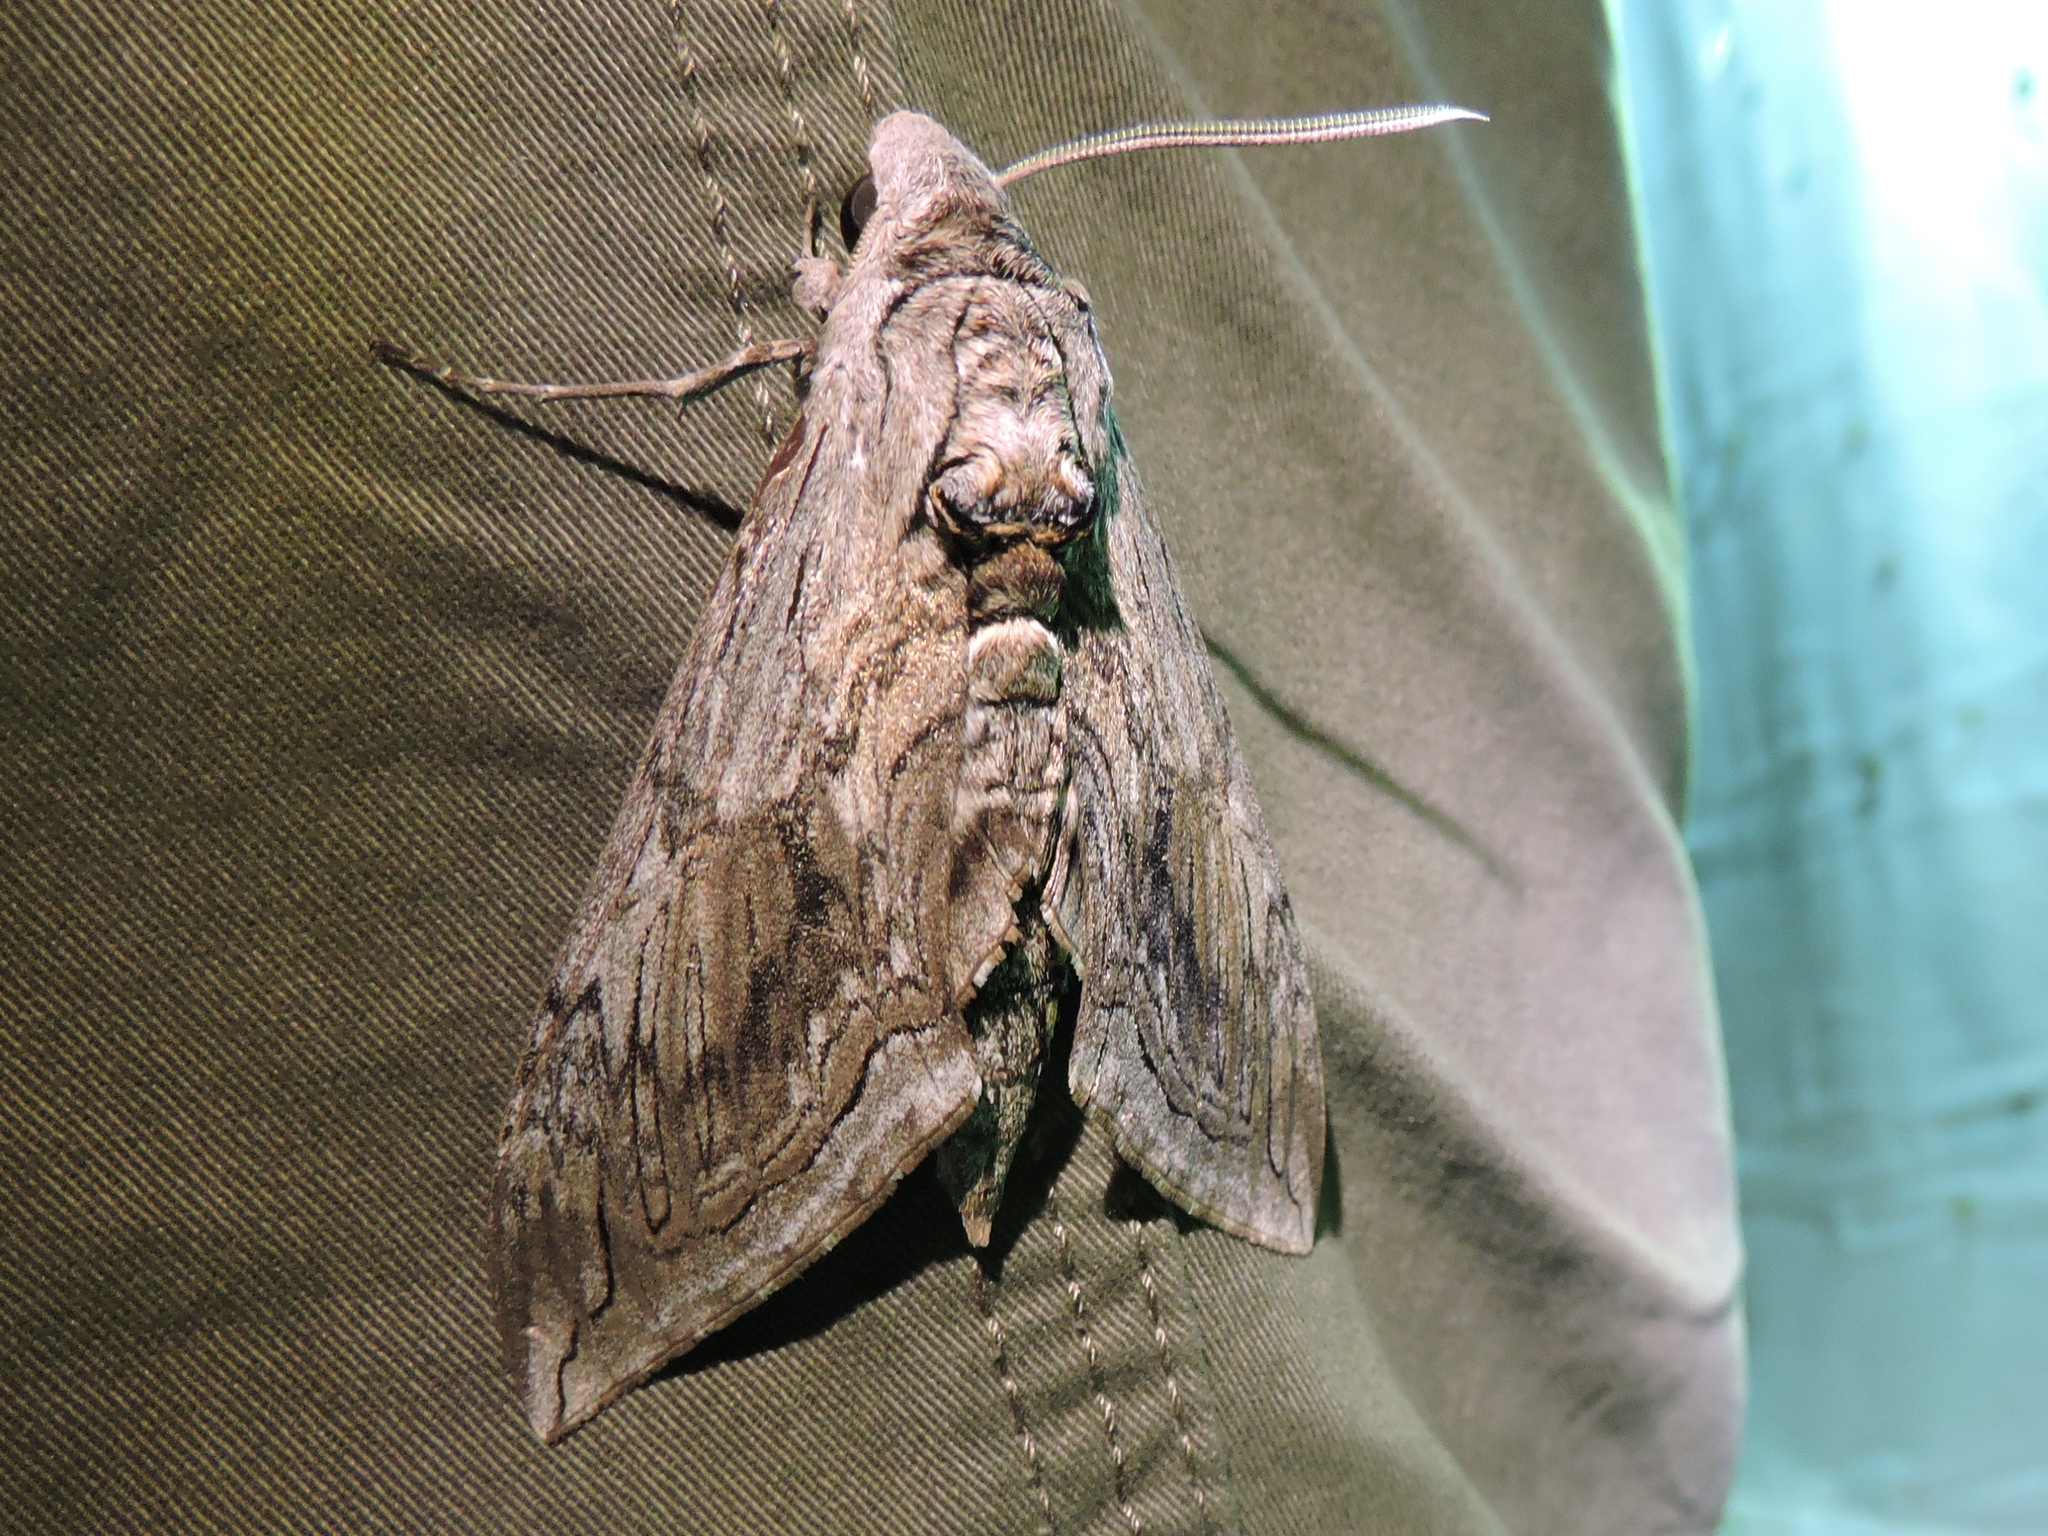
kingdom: Animalia
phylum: Arthropoda
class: Insecta
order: Lepidoptera
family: Sphingidae
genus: Manduca
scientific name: Manduca quinquemaculatus
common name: Five-spotted hawk-moth
